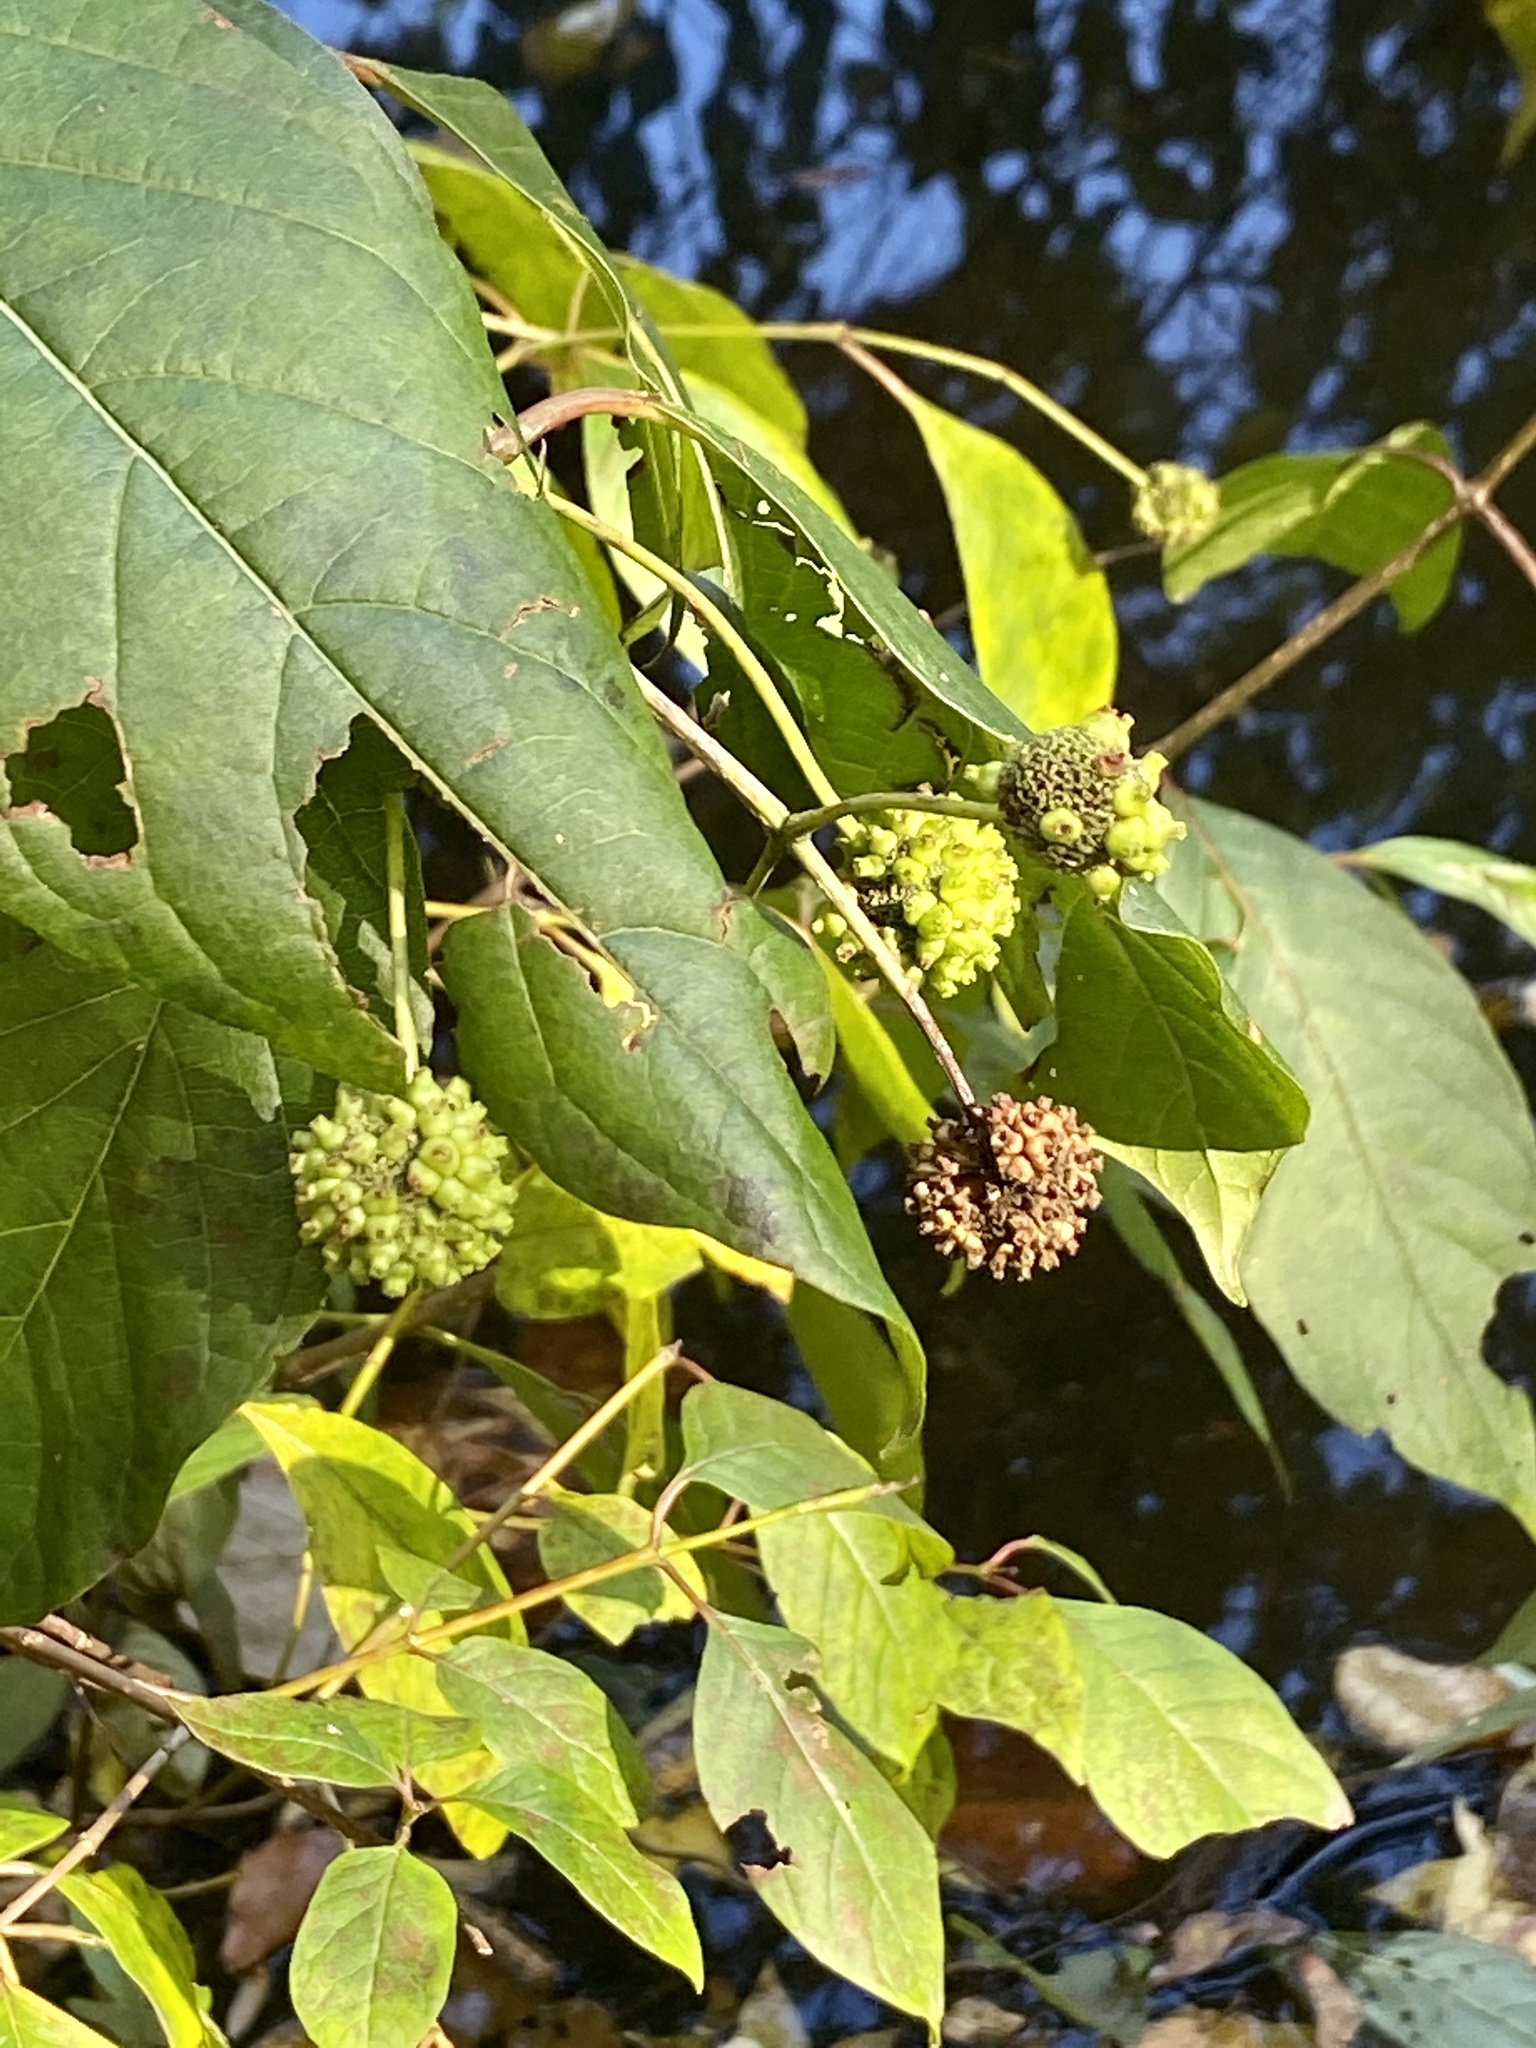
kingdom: Plantae
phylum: Tracheophyta
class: Magnoliopsida
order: Gentianales
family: Rubiaceae
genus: Cephalanthus
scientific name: Cephalanthus occidentalis
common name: Button-willow
